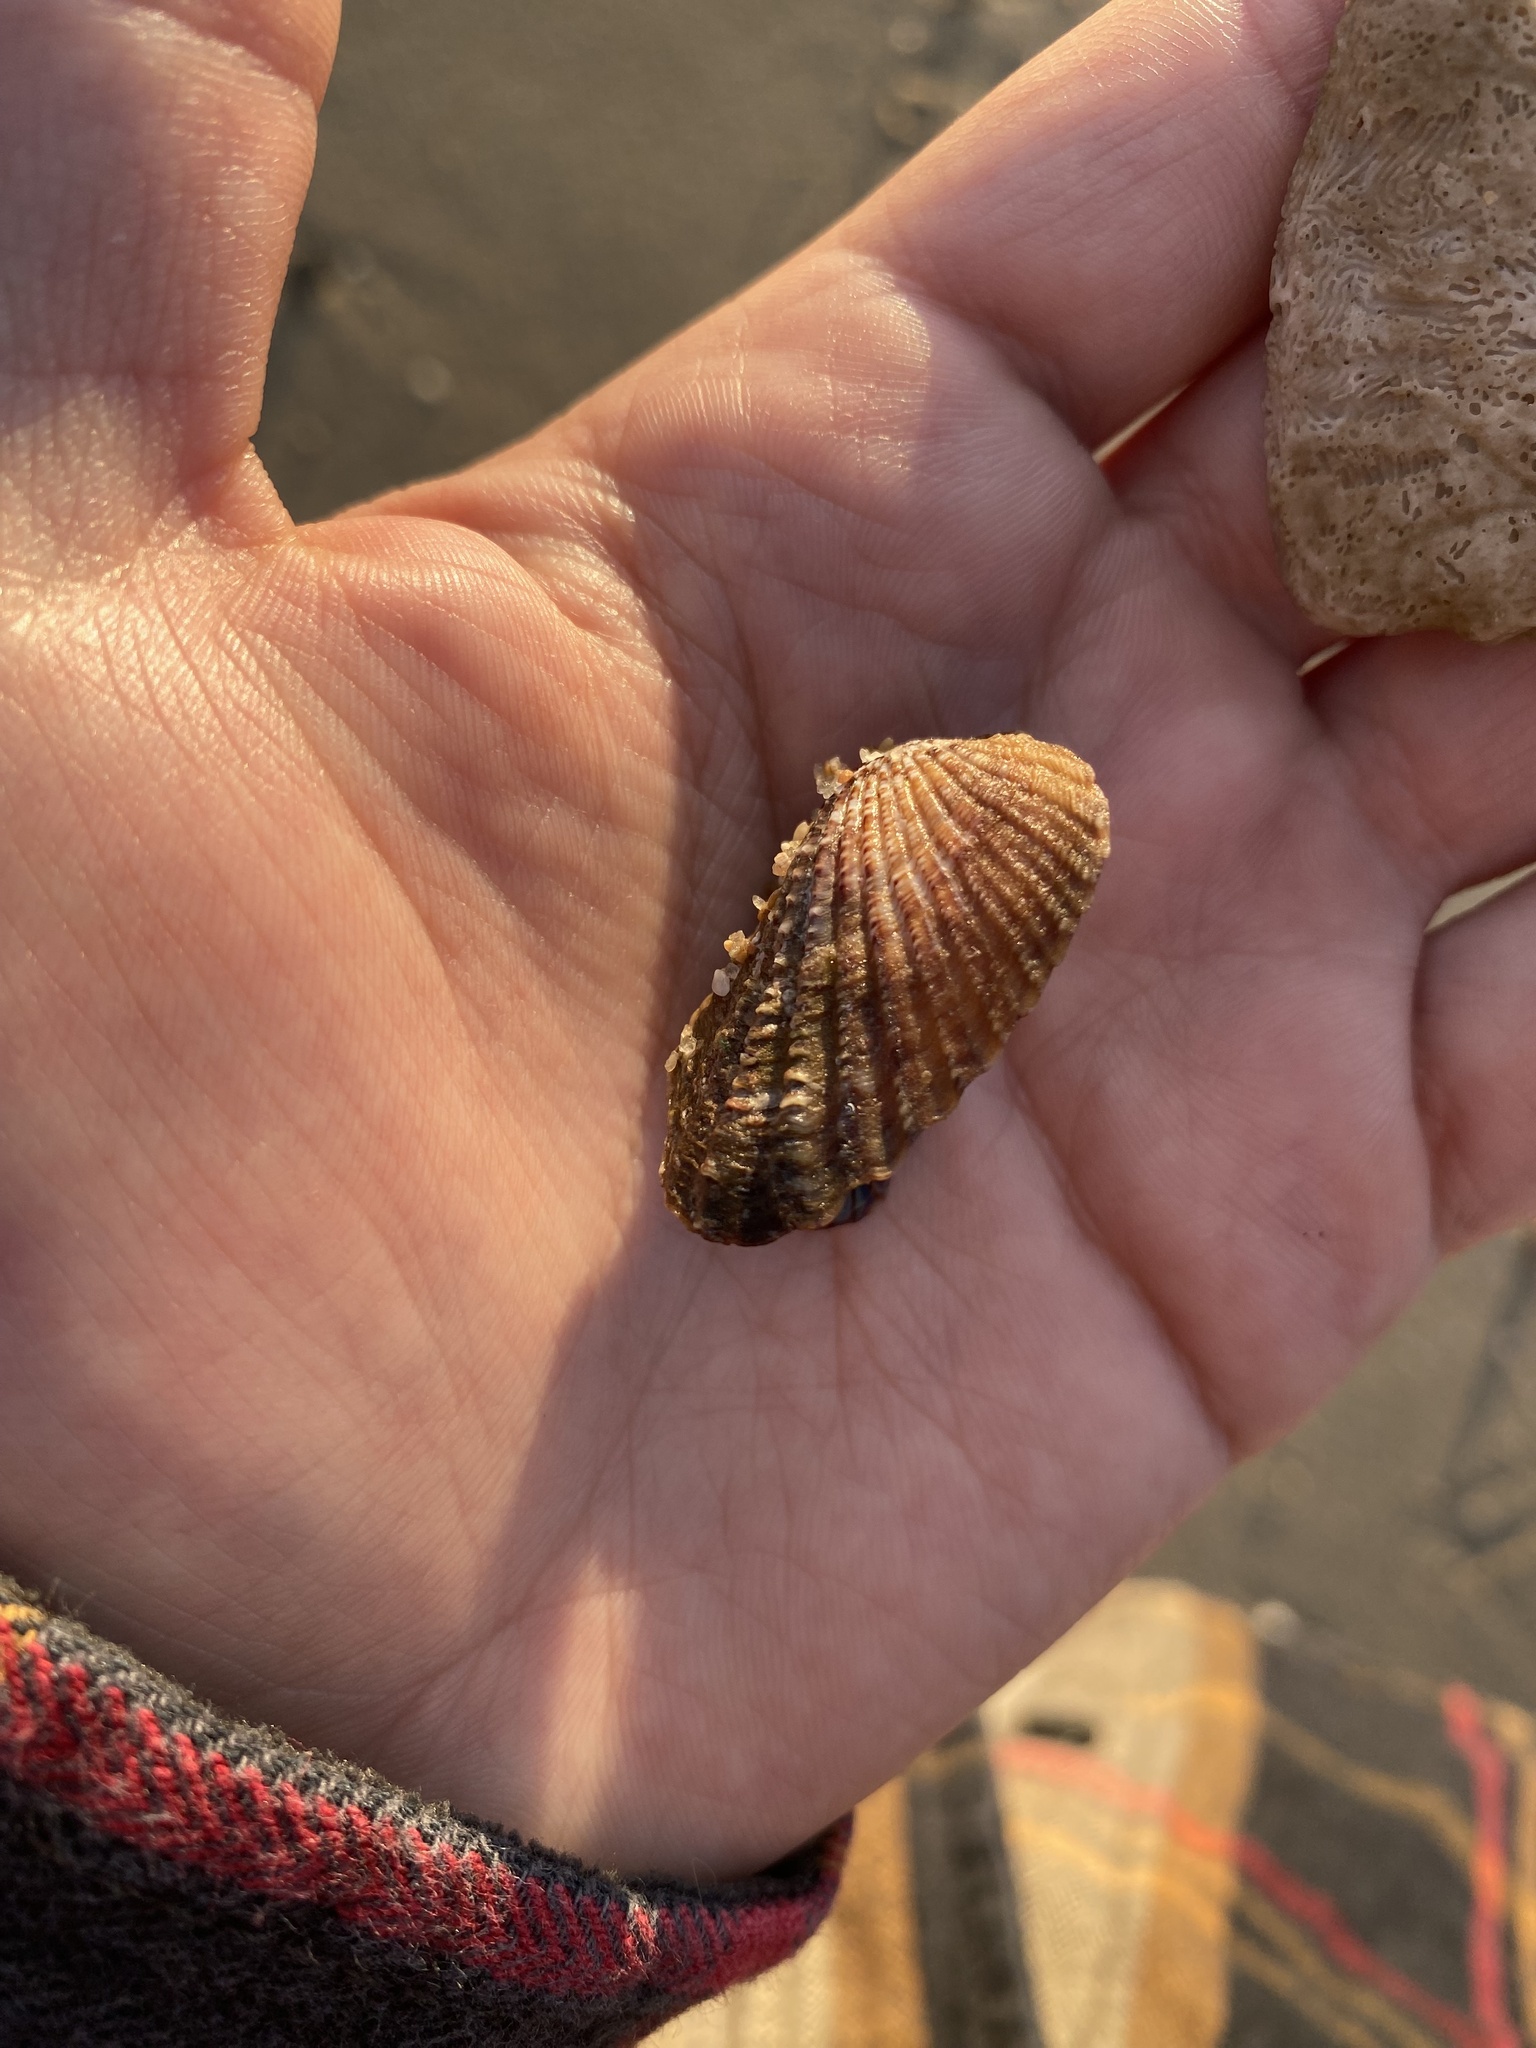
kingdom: Animalia
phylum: Mollusca
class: Bivalvia
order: Carditida
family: Carditidae
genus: Carditamera
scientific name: Carditamera affinis
